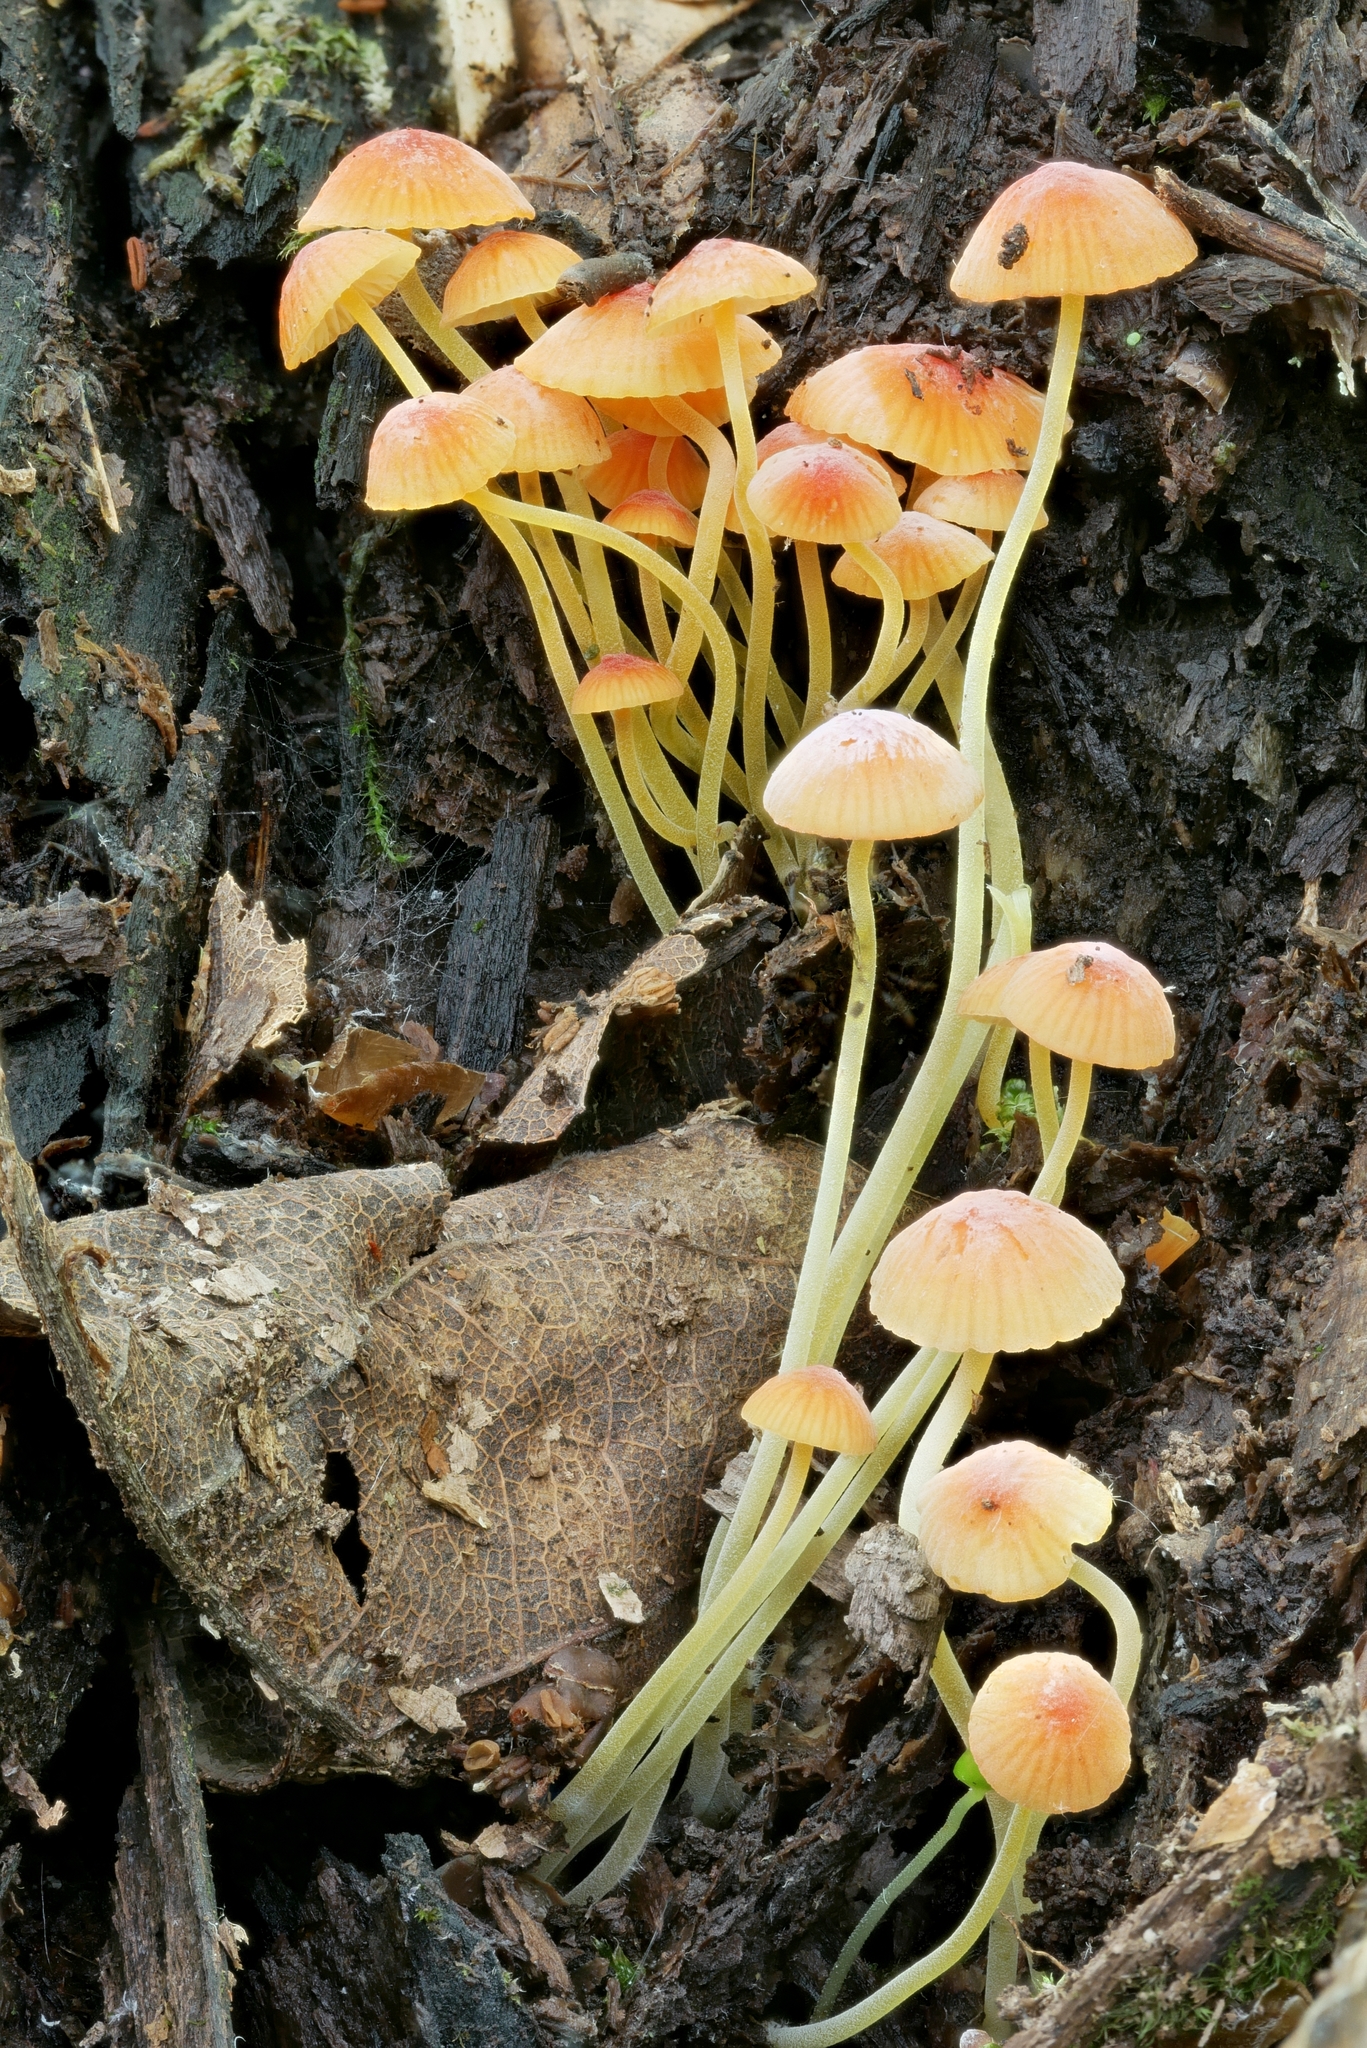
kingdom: Fungi
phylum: Basidiomycota
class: Agaricomycetes
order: Agaricales
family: Mycenaceae
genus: Mycena
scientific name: Mycena acicula
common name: Orange bonnet
